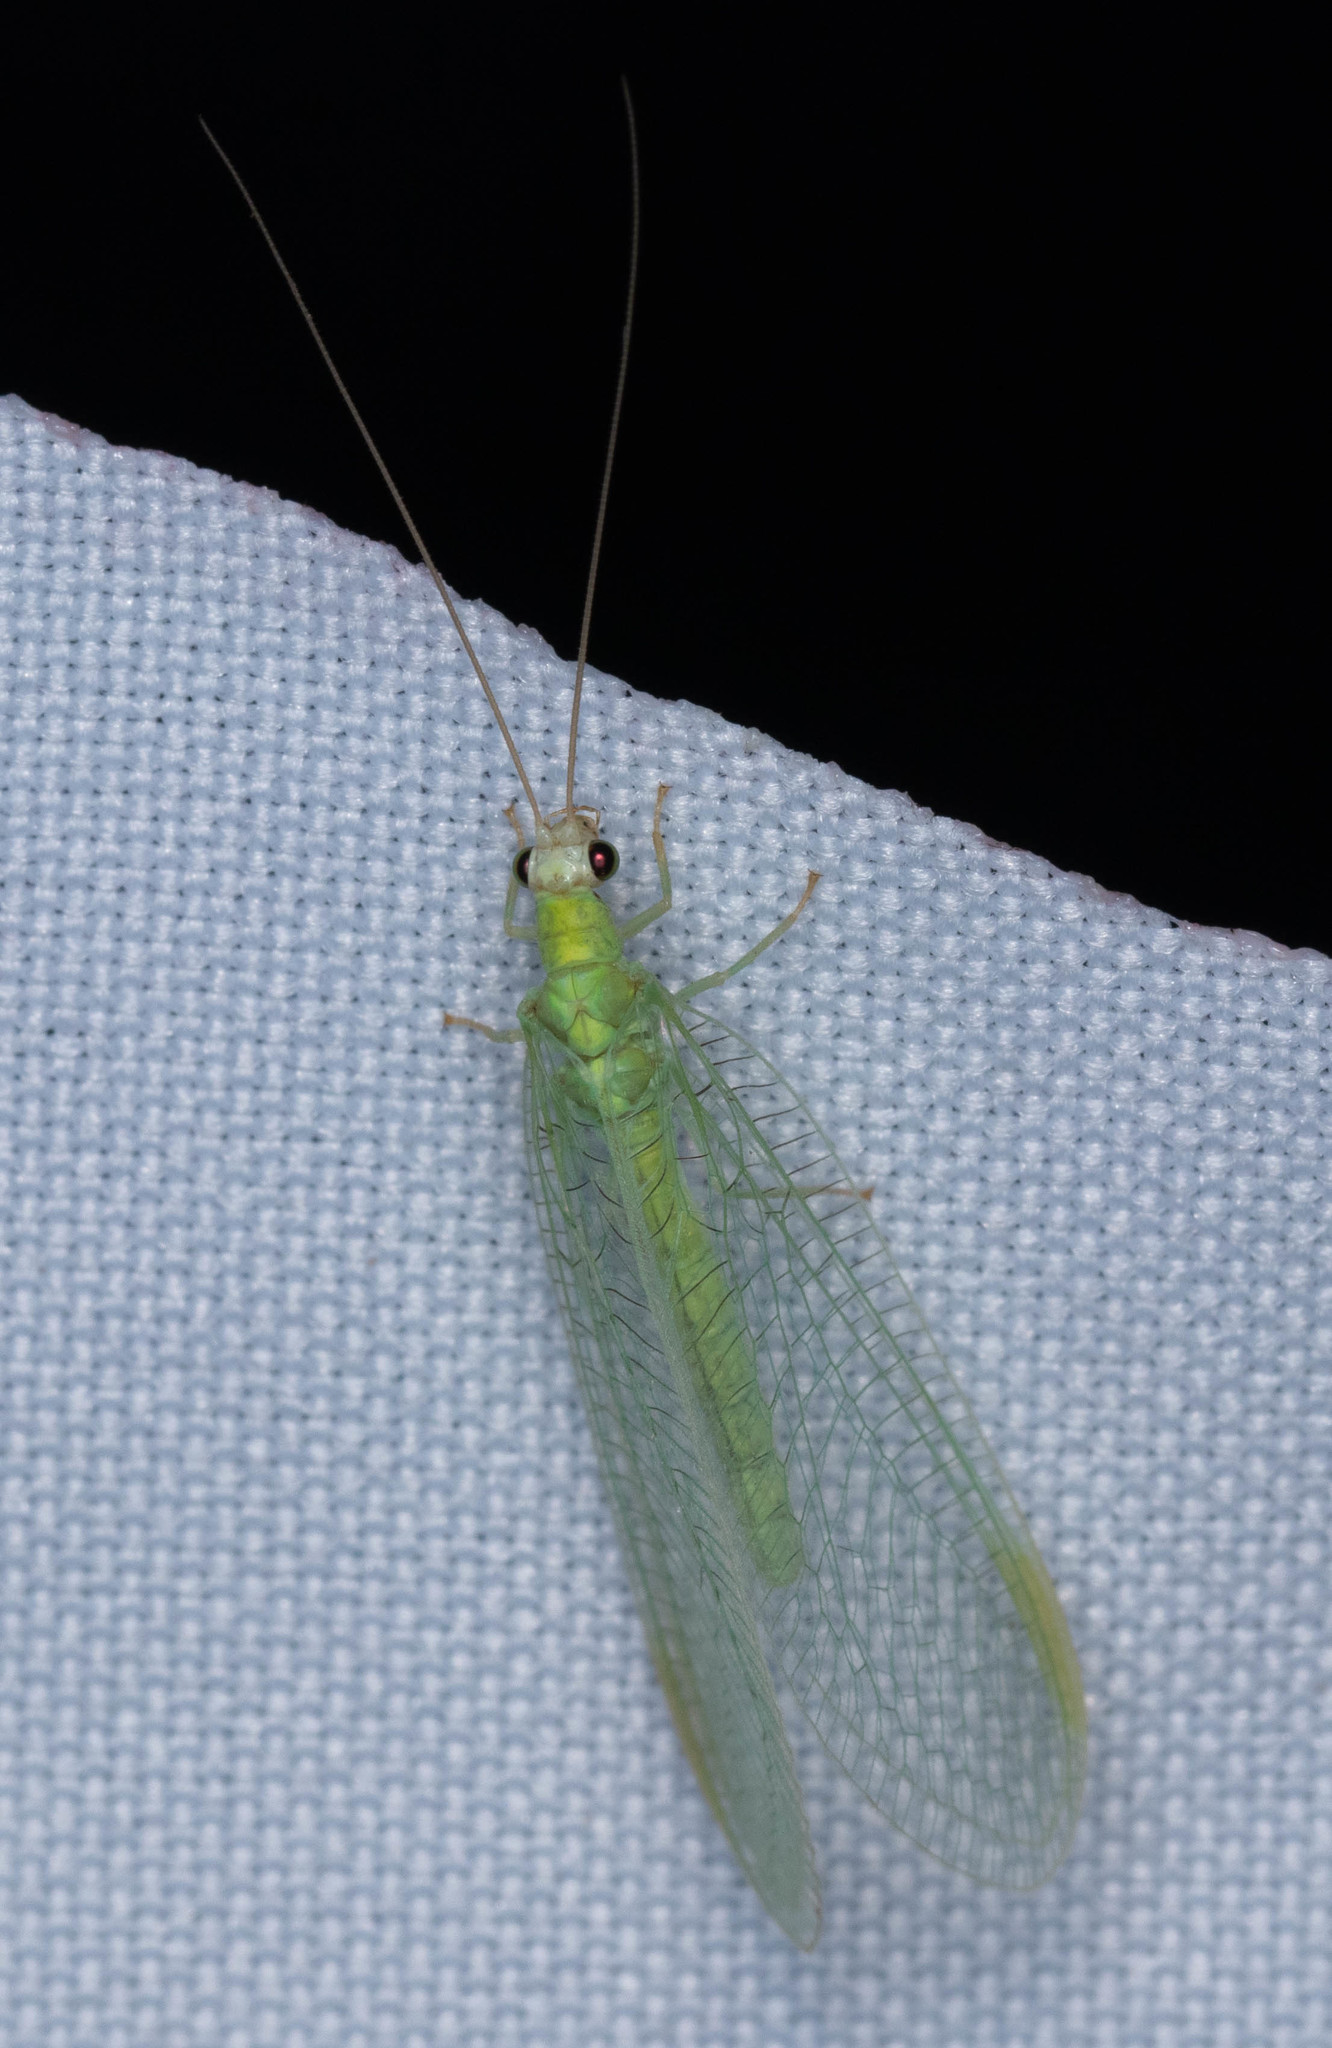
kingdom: Animalia
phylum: Arthropoda
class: Insecta
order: Neuroptera
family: Chrysopidae
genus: Chrysopa
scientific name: Chrysopa nigricornis
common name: Black-horned green lacewing
